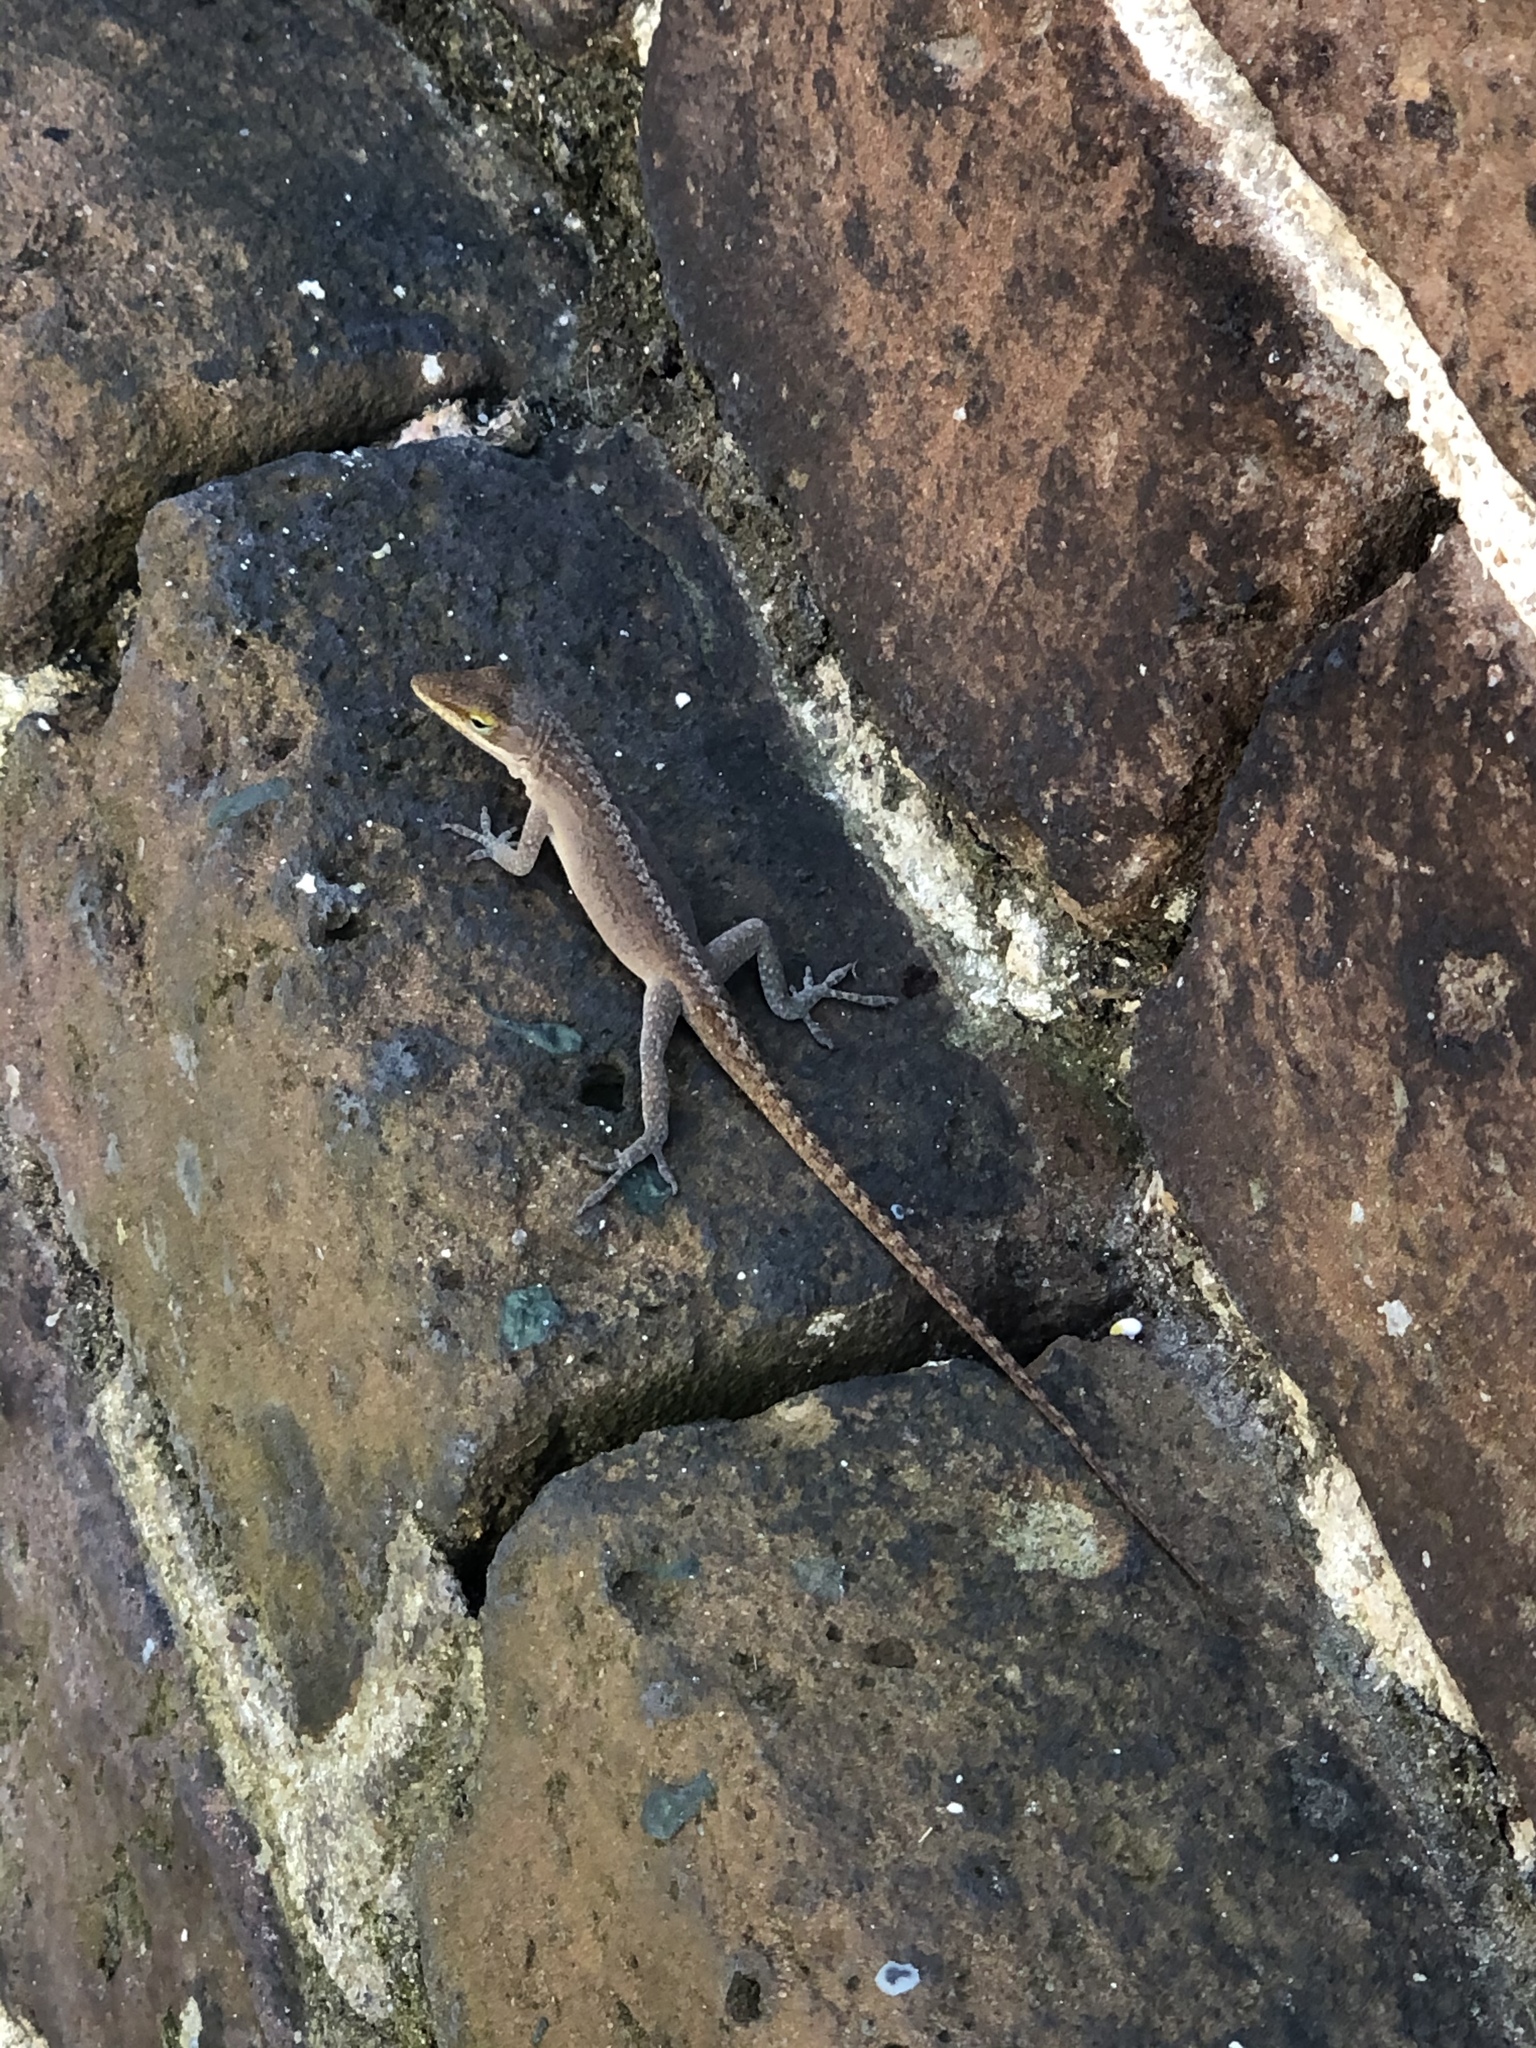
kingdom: Animalia
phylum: Chordata
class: Squamata
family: Dactyloidae
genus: Anolis
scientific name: Anolis carolinensis
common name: Green anole
